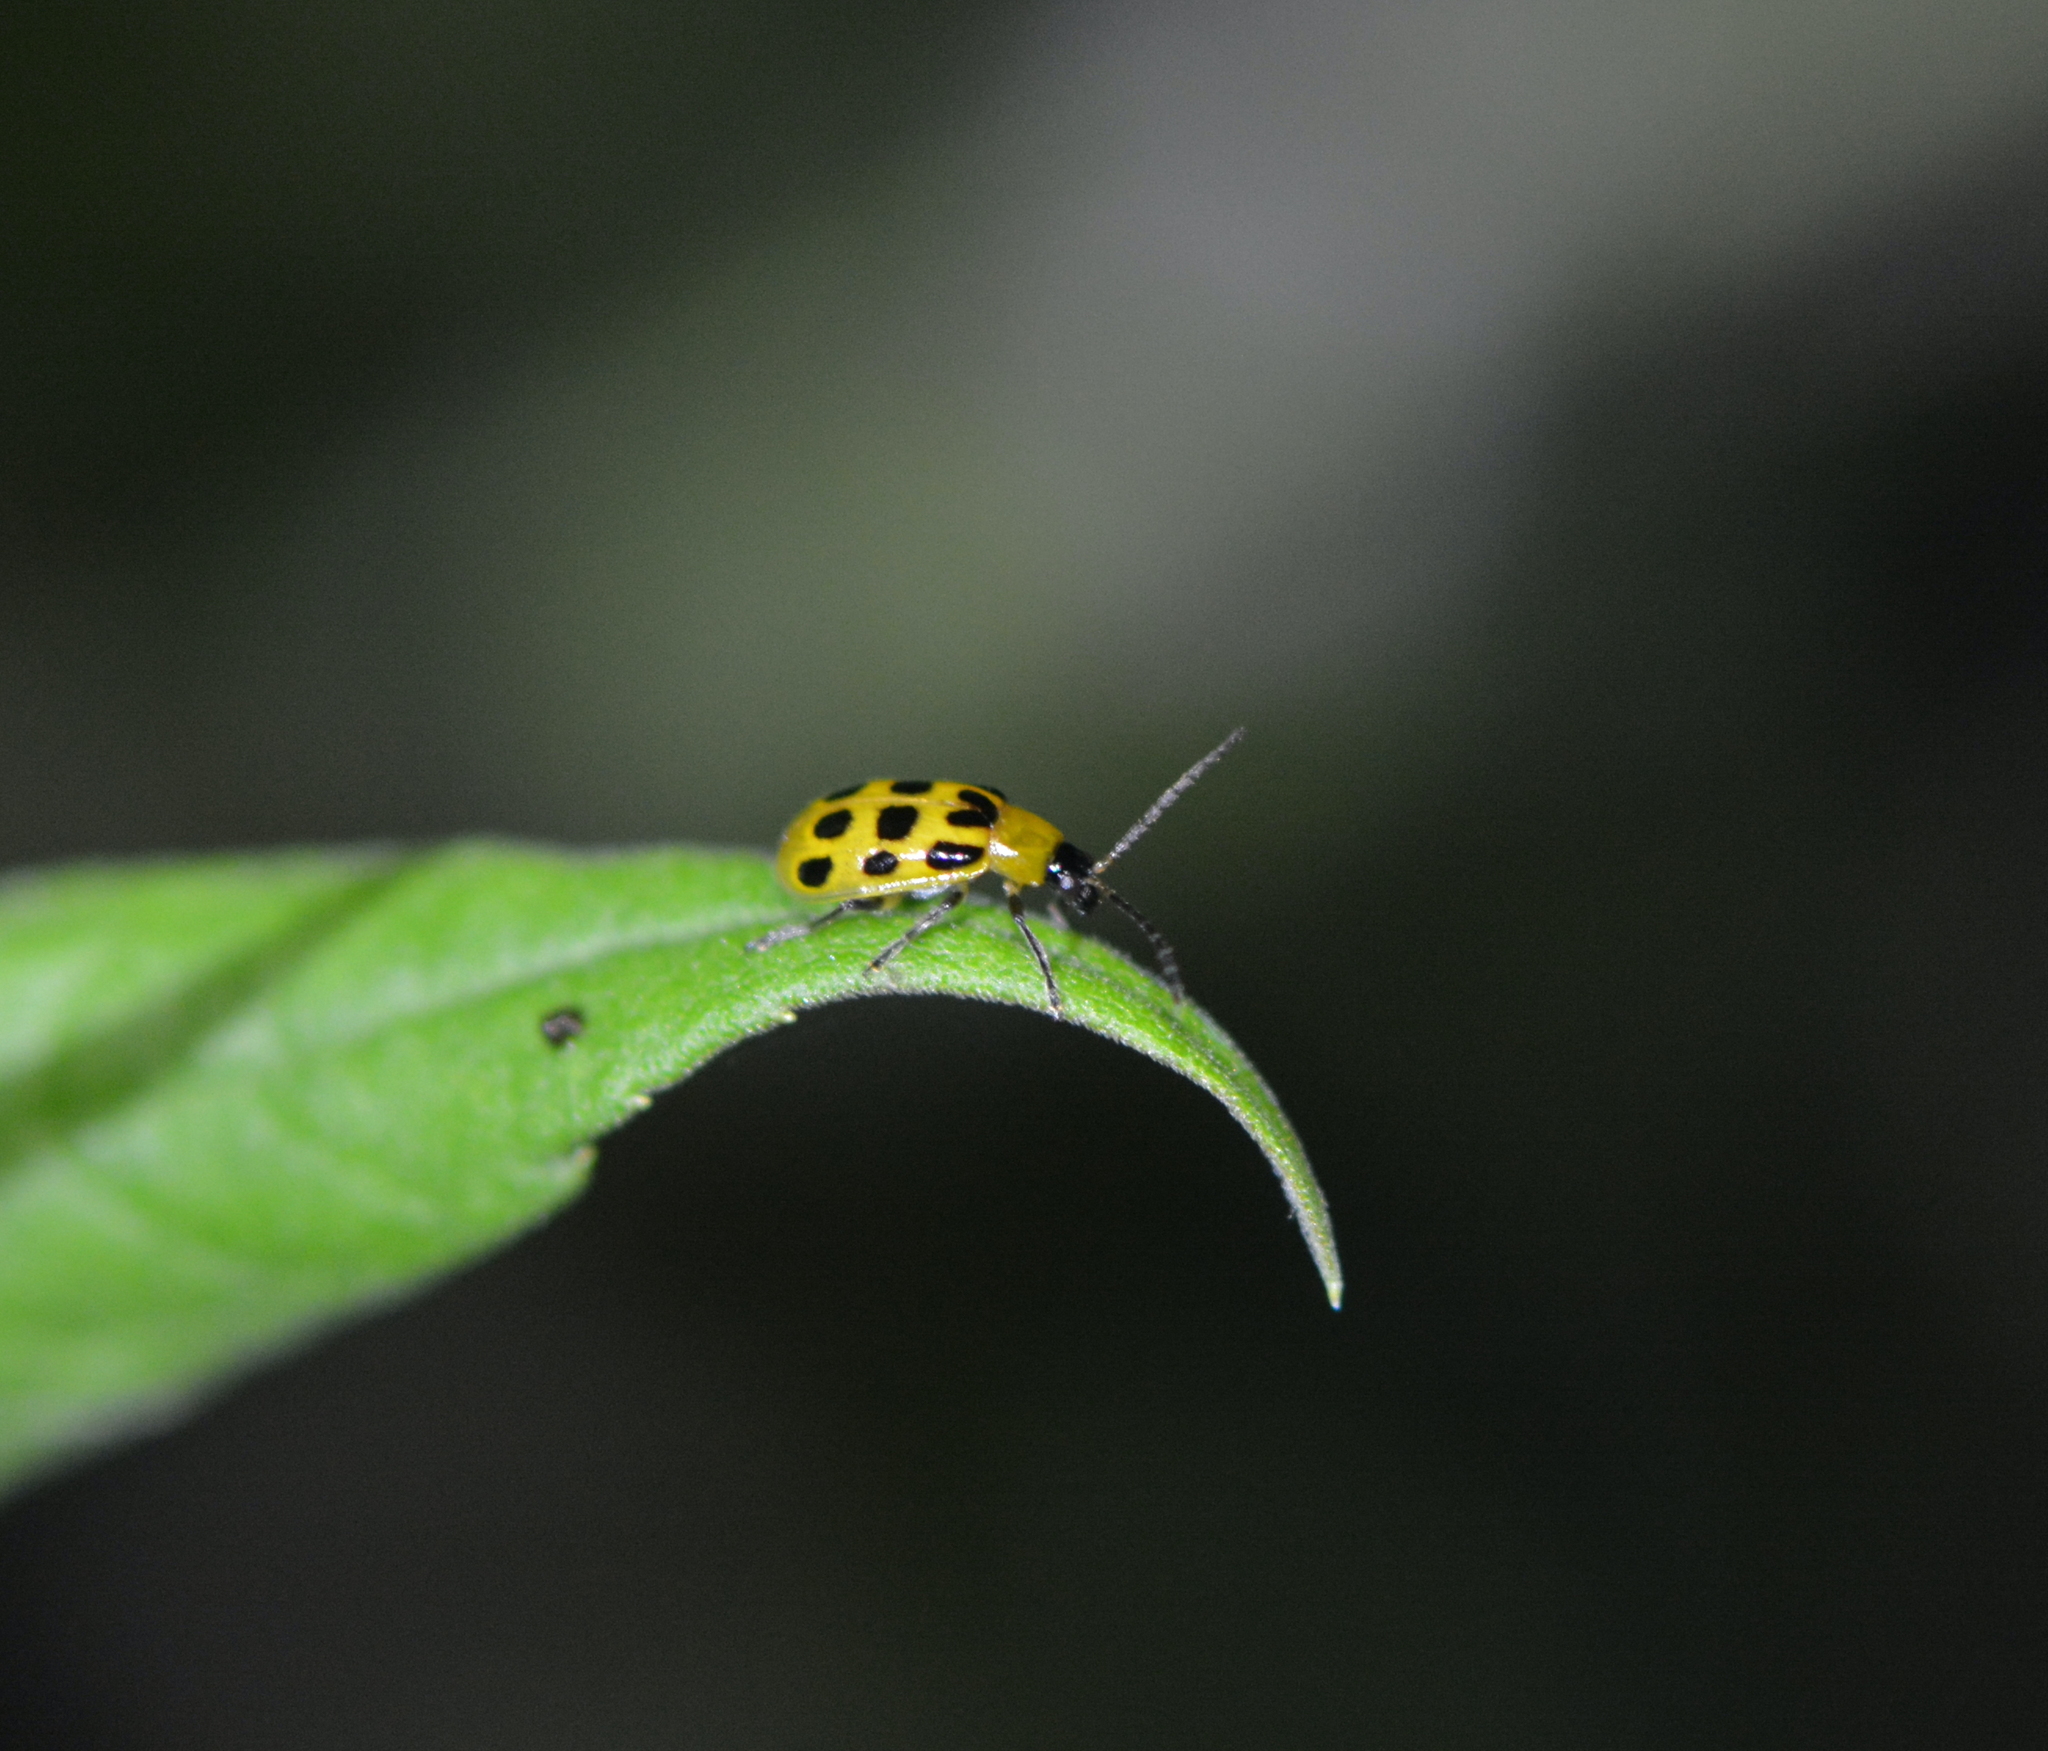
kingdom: Animalia
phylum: Arthropoda
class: Insecta
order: Coleoptera
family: Chrysomelidae
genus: Diabrotica
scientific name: Diabrotica undecimpunctata
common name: Spotted cucumber beetle
